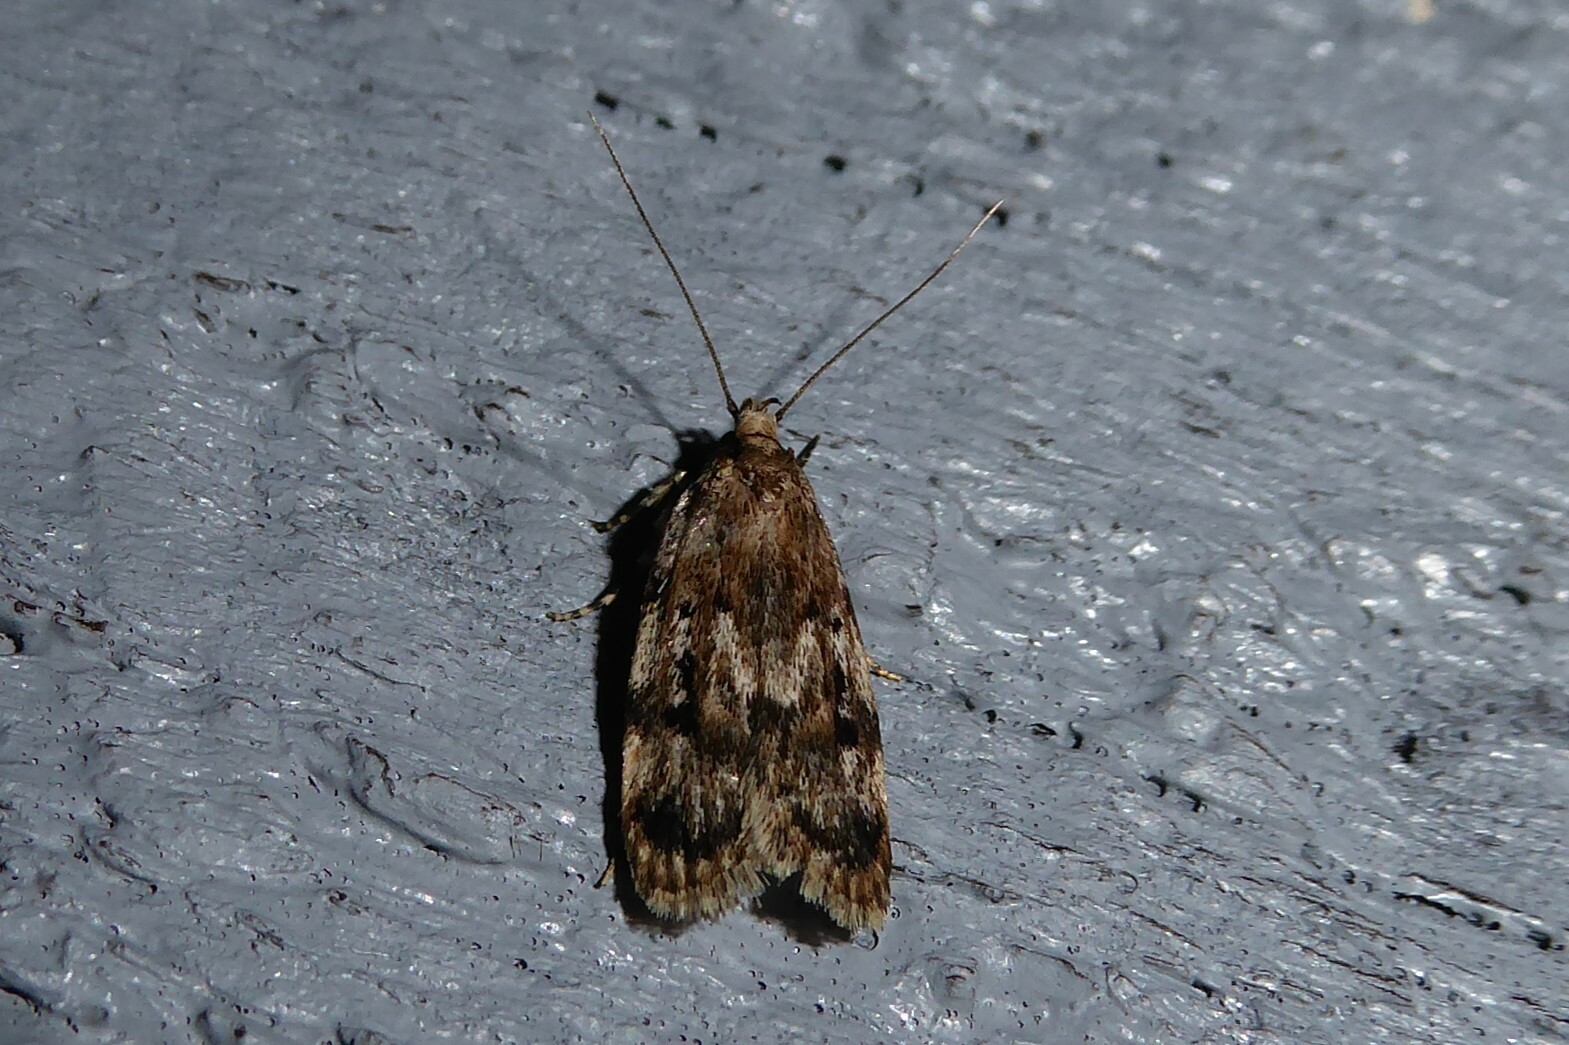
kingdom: Animalia
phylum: Arthropoda
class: Insecta
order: Lepidoptera
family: Oecophoridae
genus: Barea
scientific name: Barea exarcha
